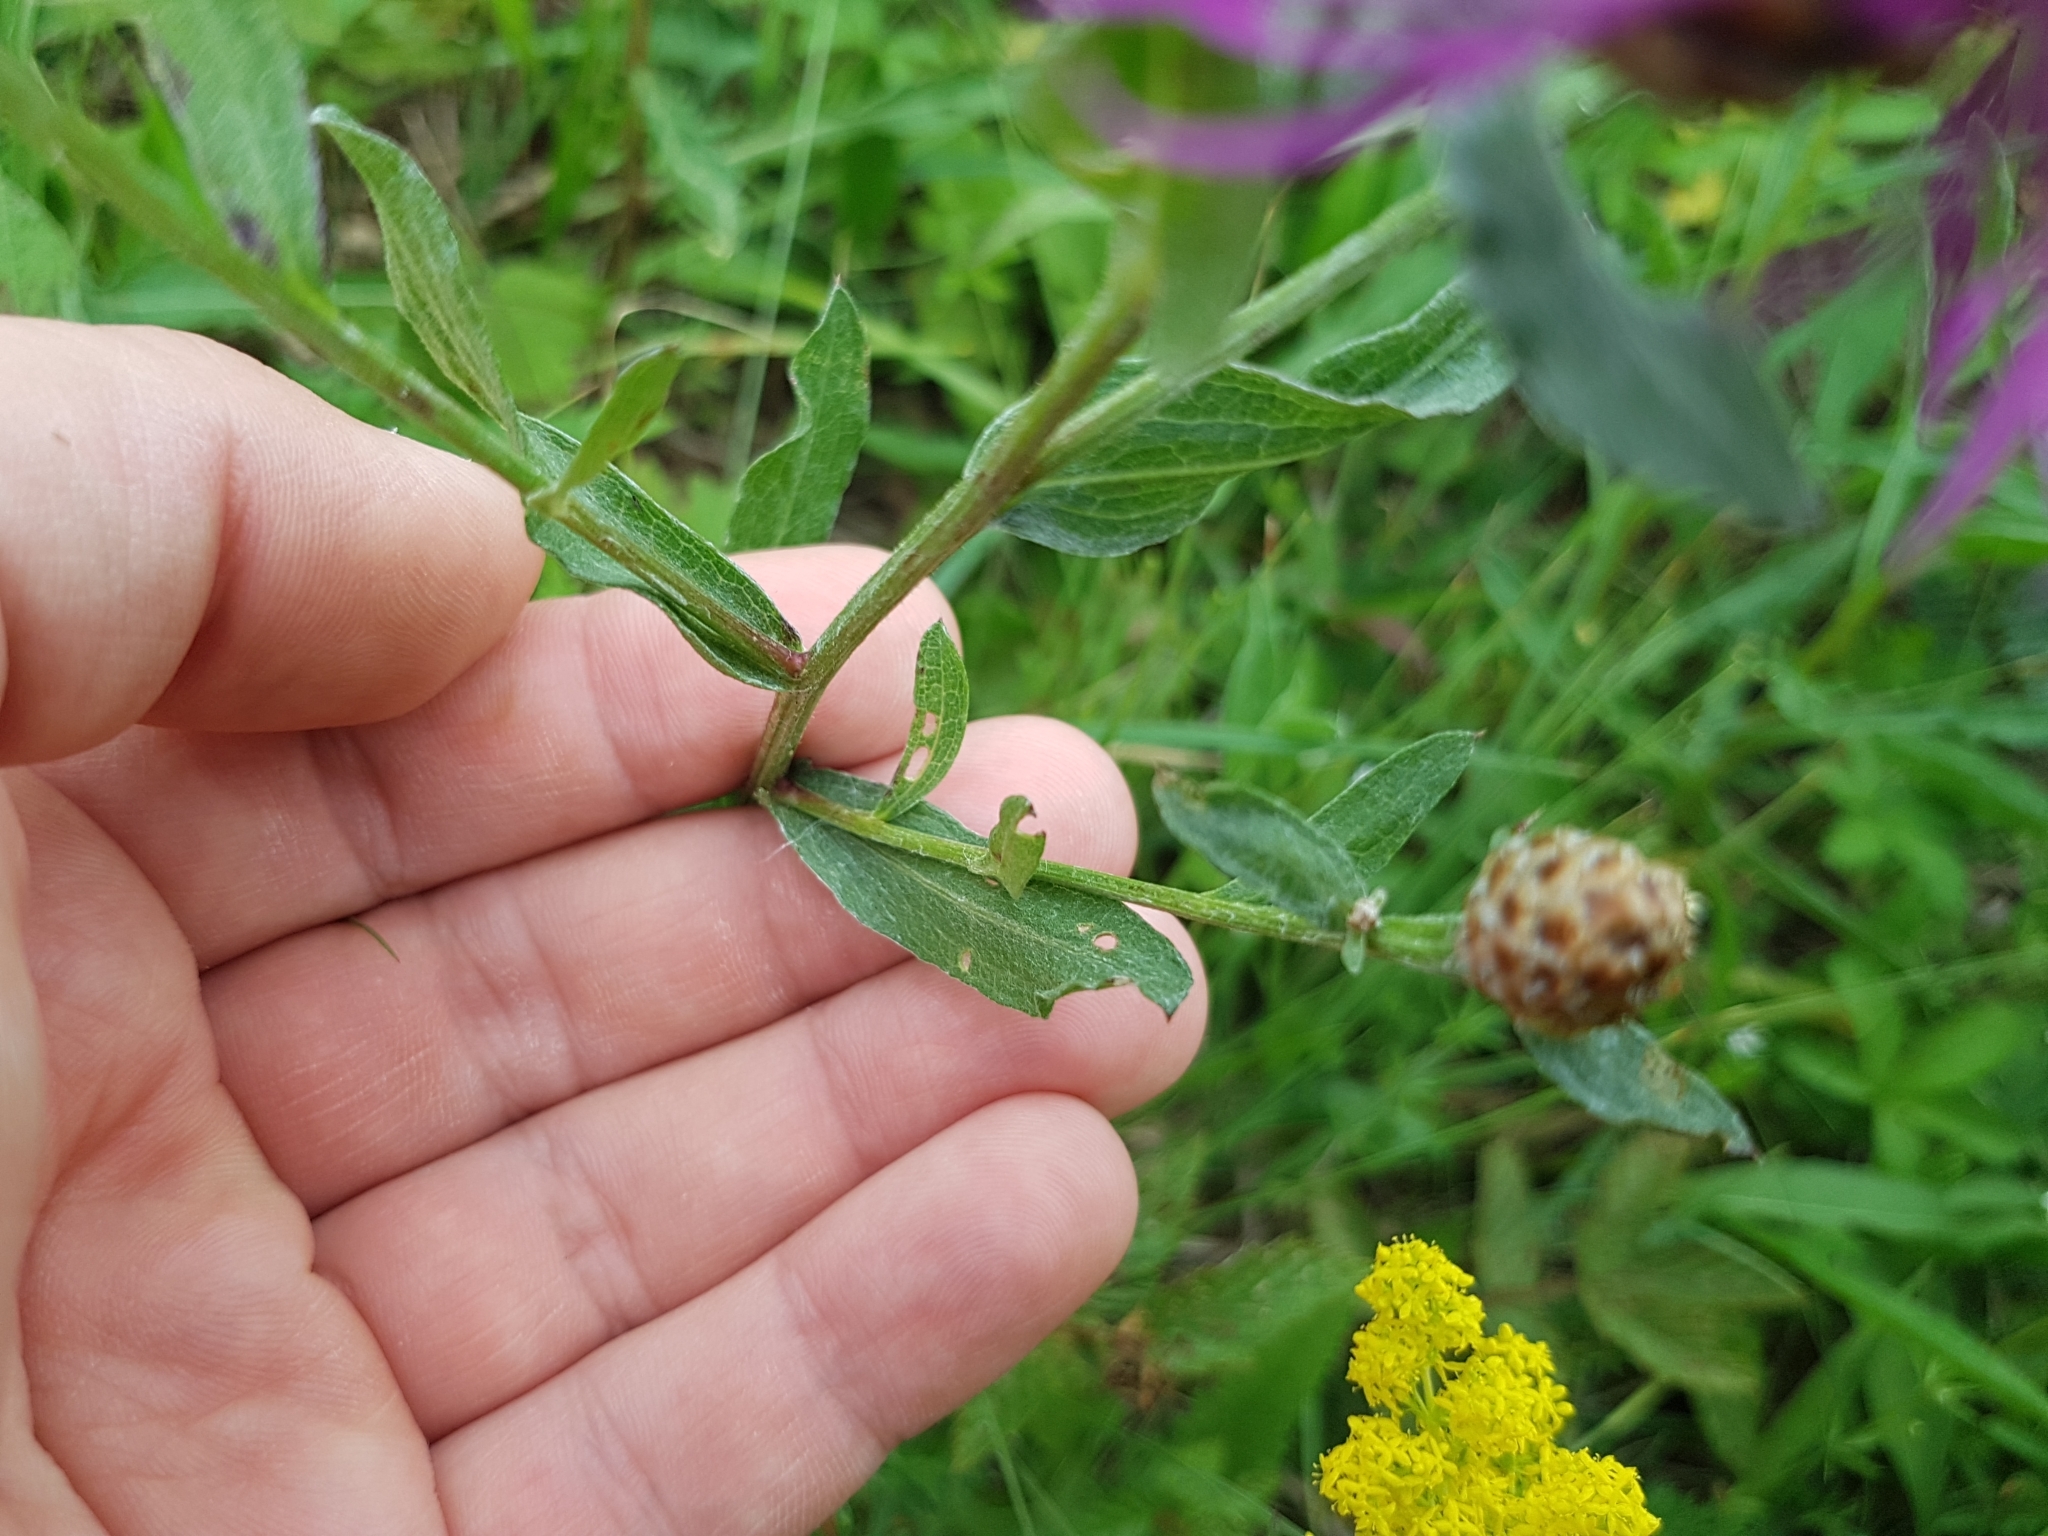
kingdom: Plantae
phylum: Tracheophyta
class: Magnoliopsida
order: Asterales
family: Asteraceae
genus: Centaurea
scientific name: Centaurea jacea
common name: Brown knapweed
